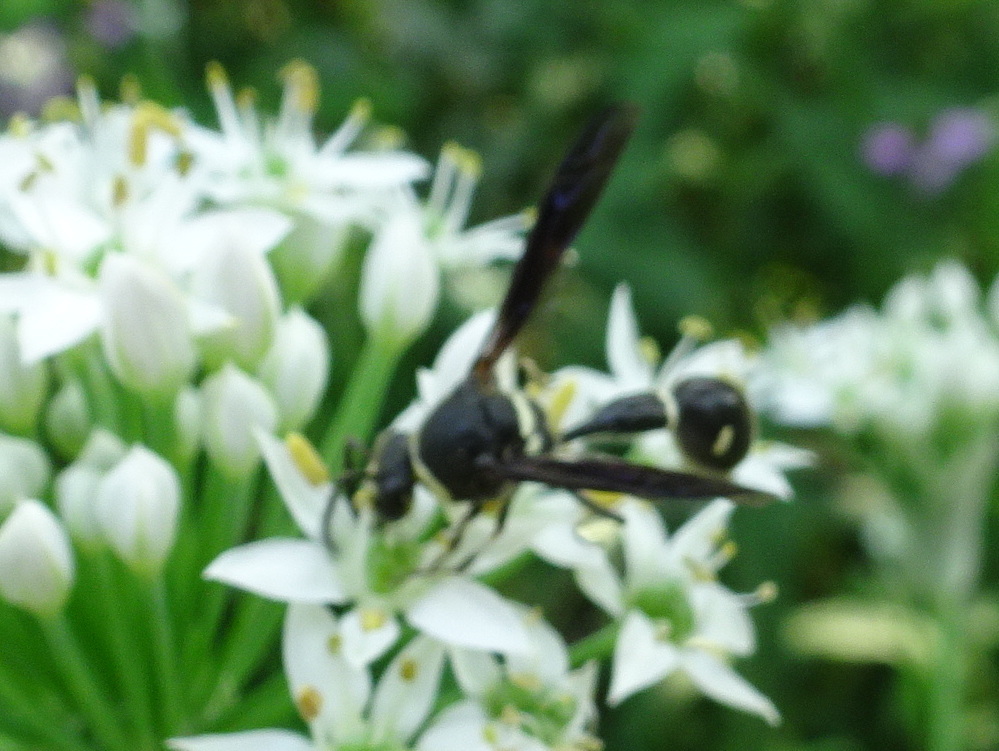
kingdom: Animalia
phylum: Arthropoda
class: Insecta
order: Hymenoptera
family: Vespidae
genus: Eumenes
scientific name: Eumenes fraternus
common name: Fraternal potter wasp
